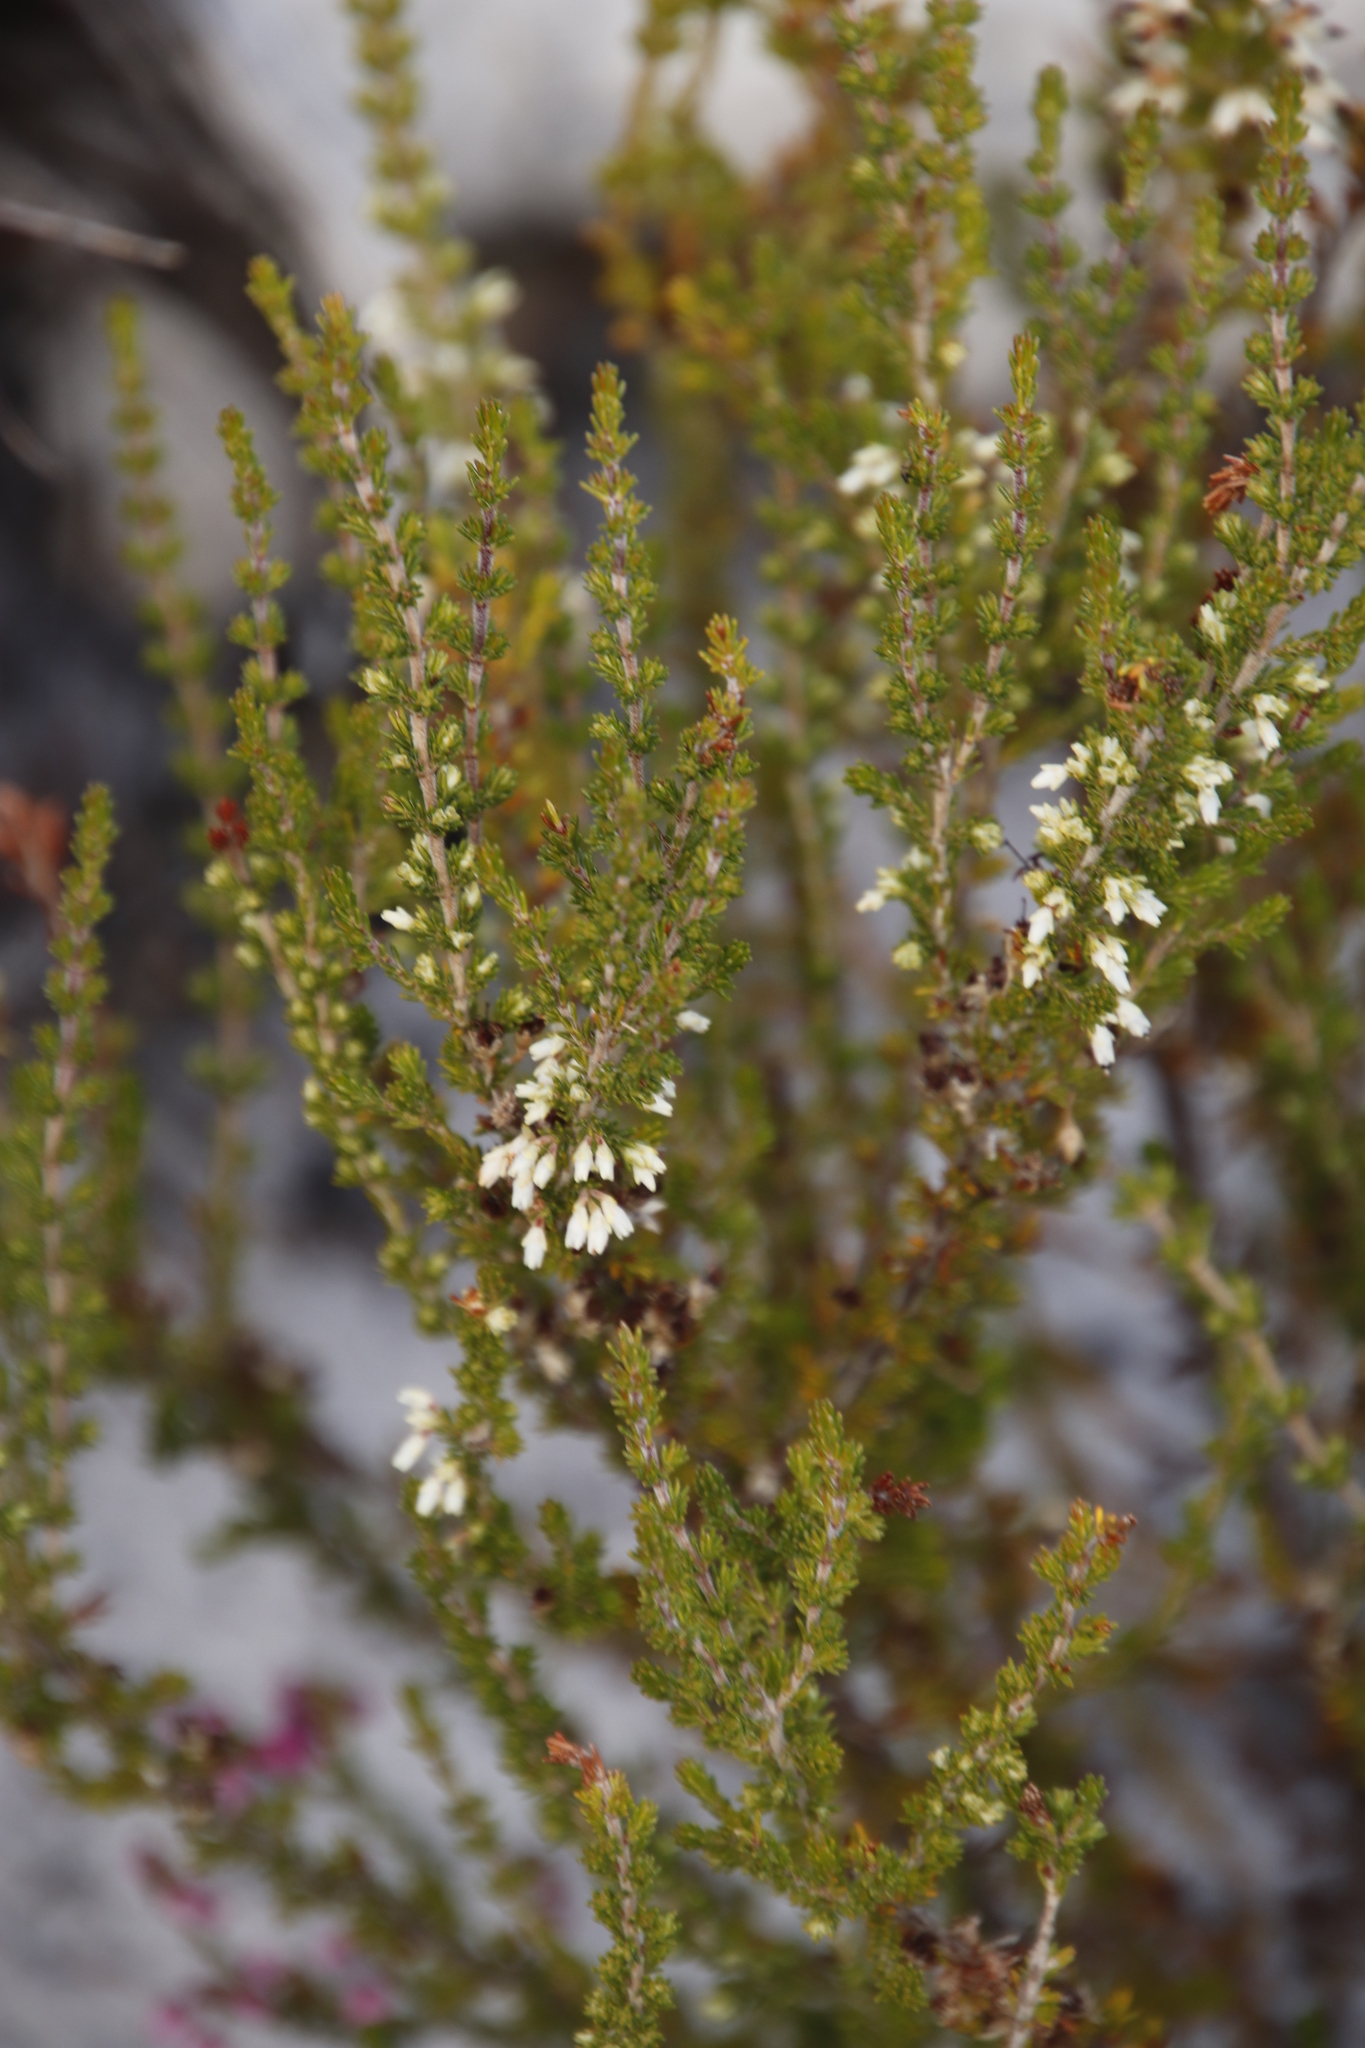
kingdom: Plantae
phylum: Tracheophyta
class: Magnoliopsida
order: Ericales
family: Ericaceae
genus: Erica
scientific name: Erica imbricata
